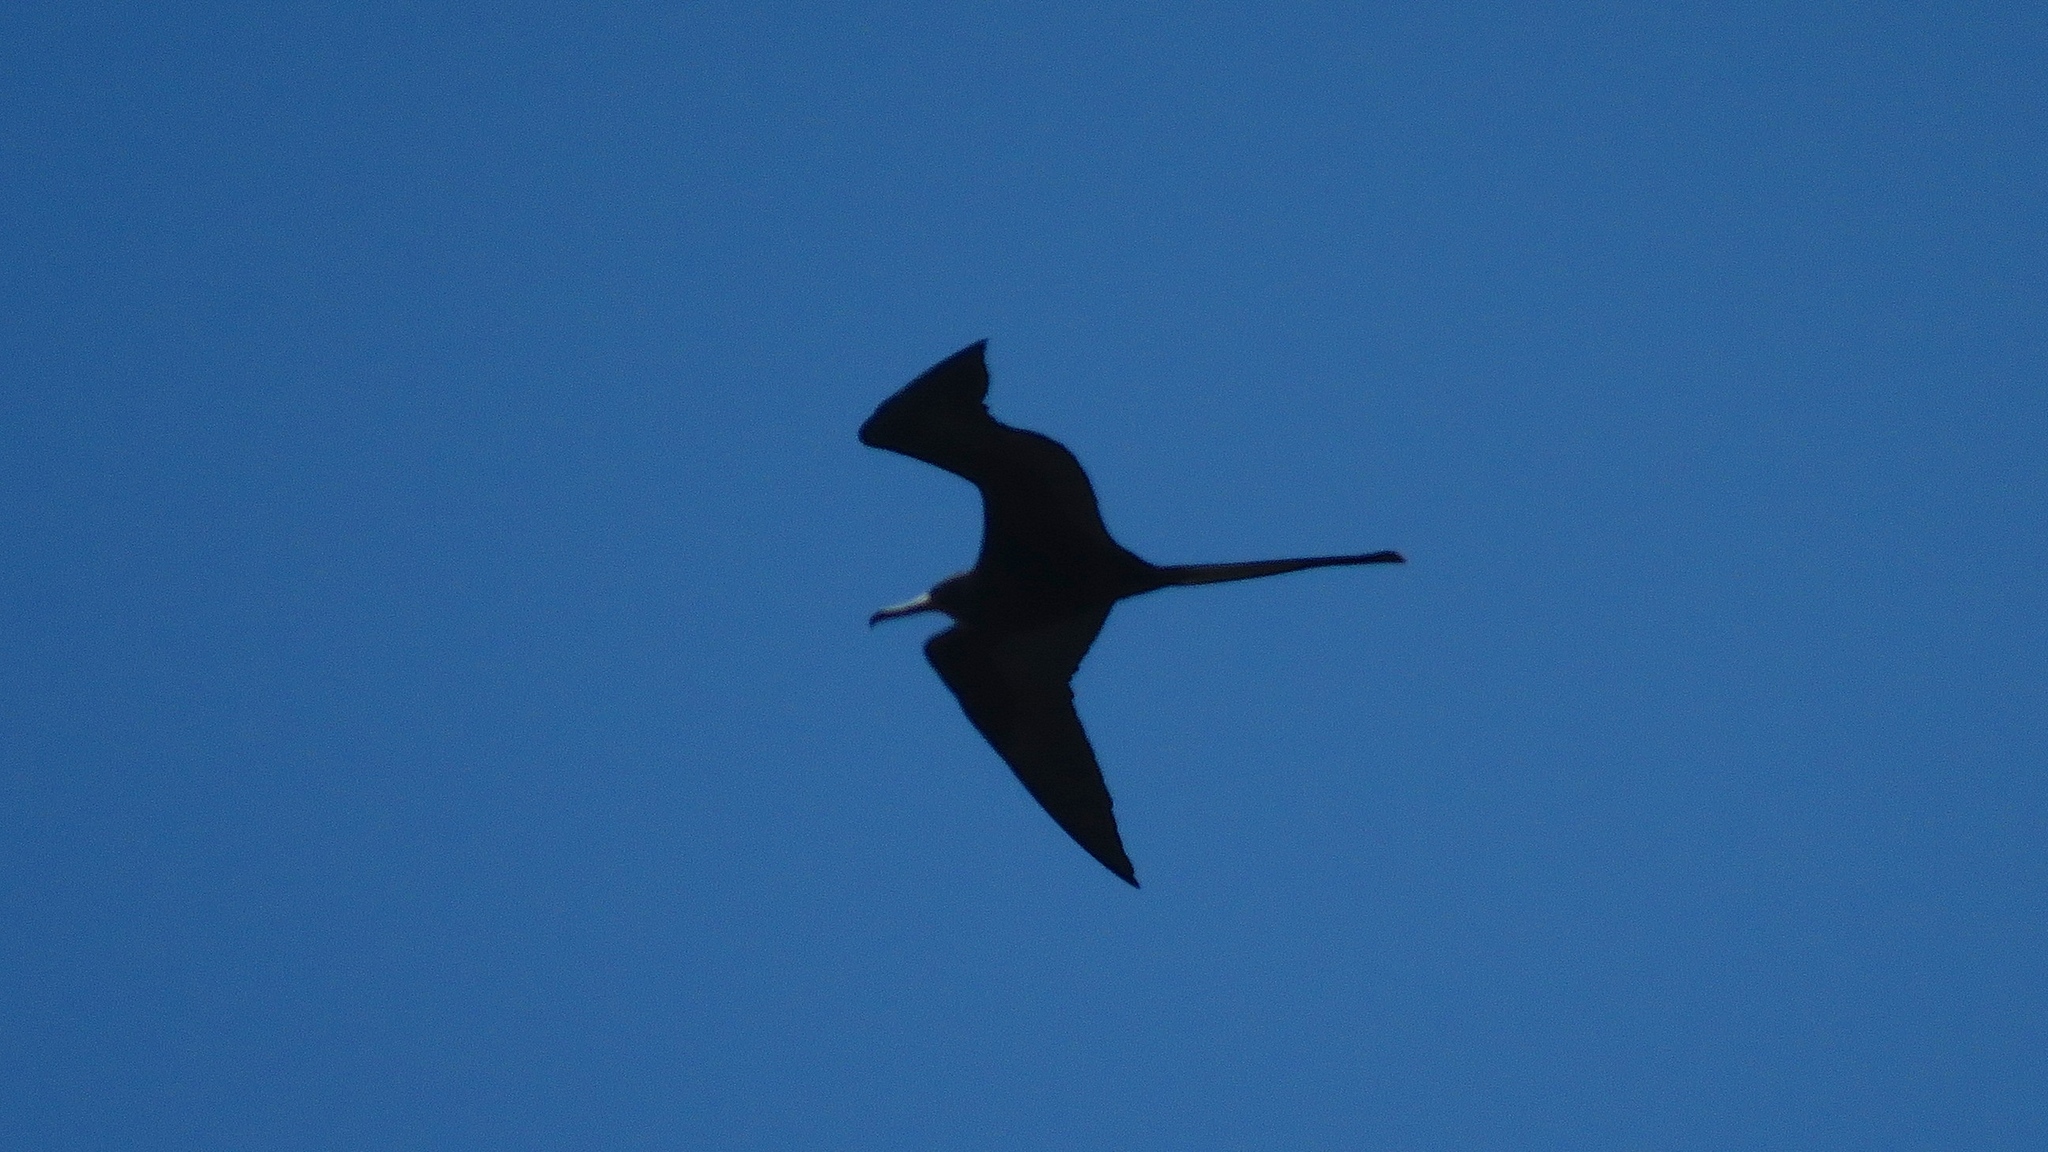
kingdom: Animalia
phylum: Chordata
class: Aves
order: Suliformes
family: Fregatidae
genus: Fregata
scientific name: Fregata magnificens
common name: Magnificent frigatebird
